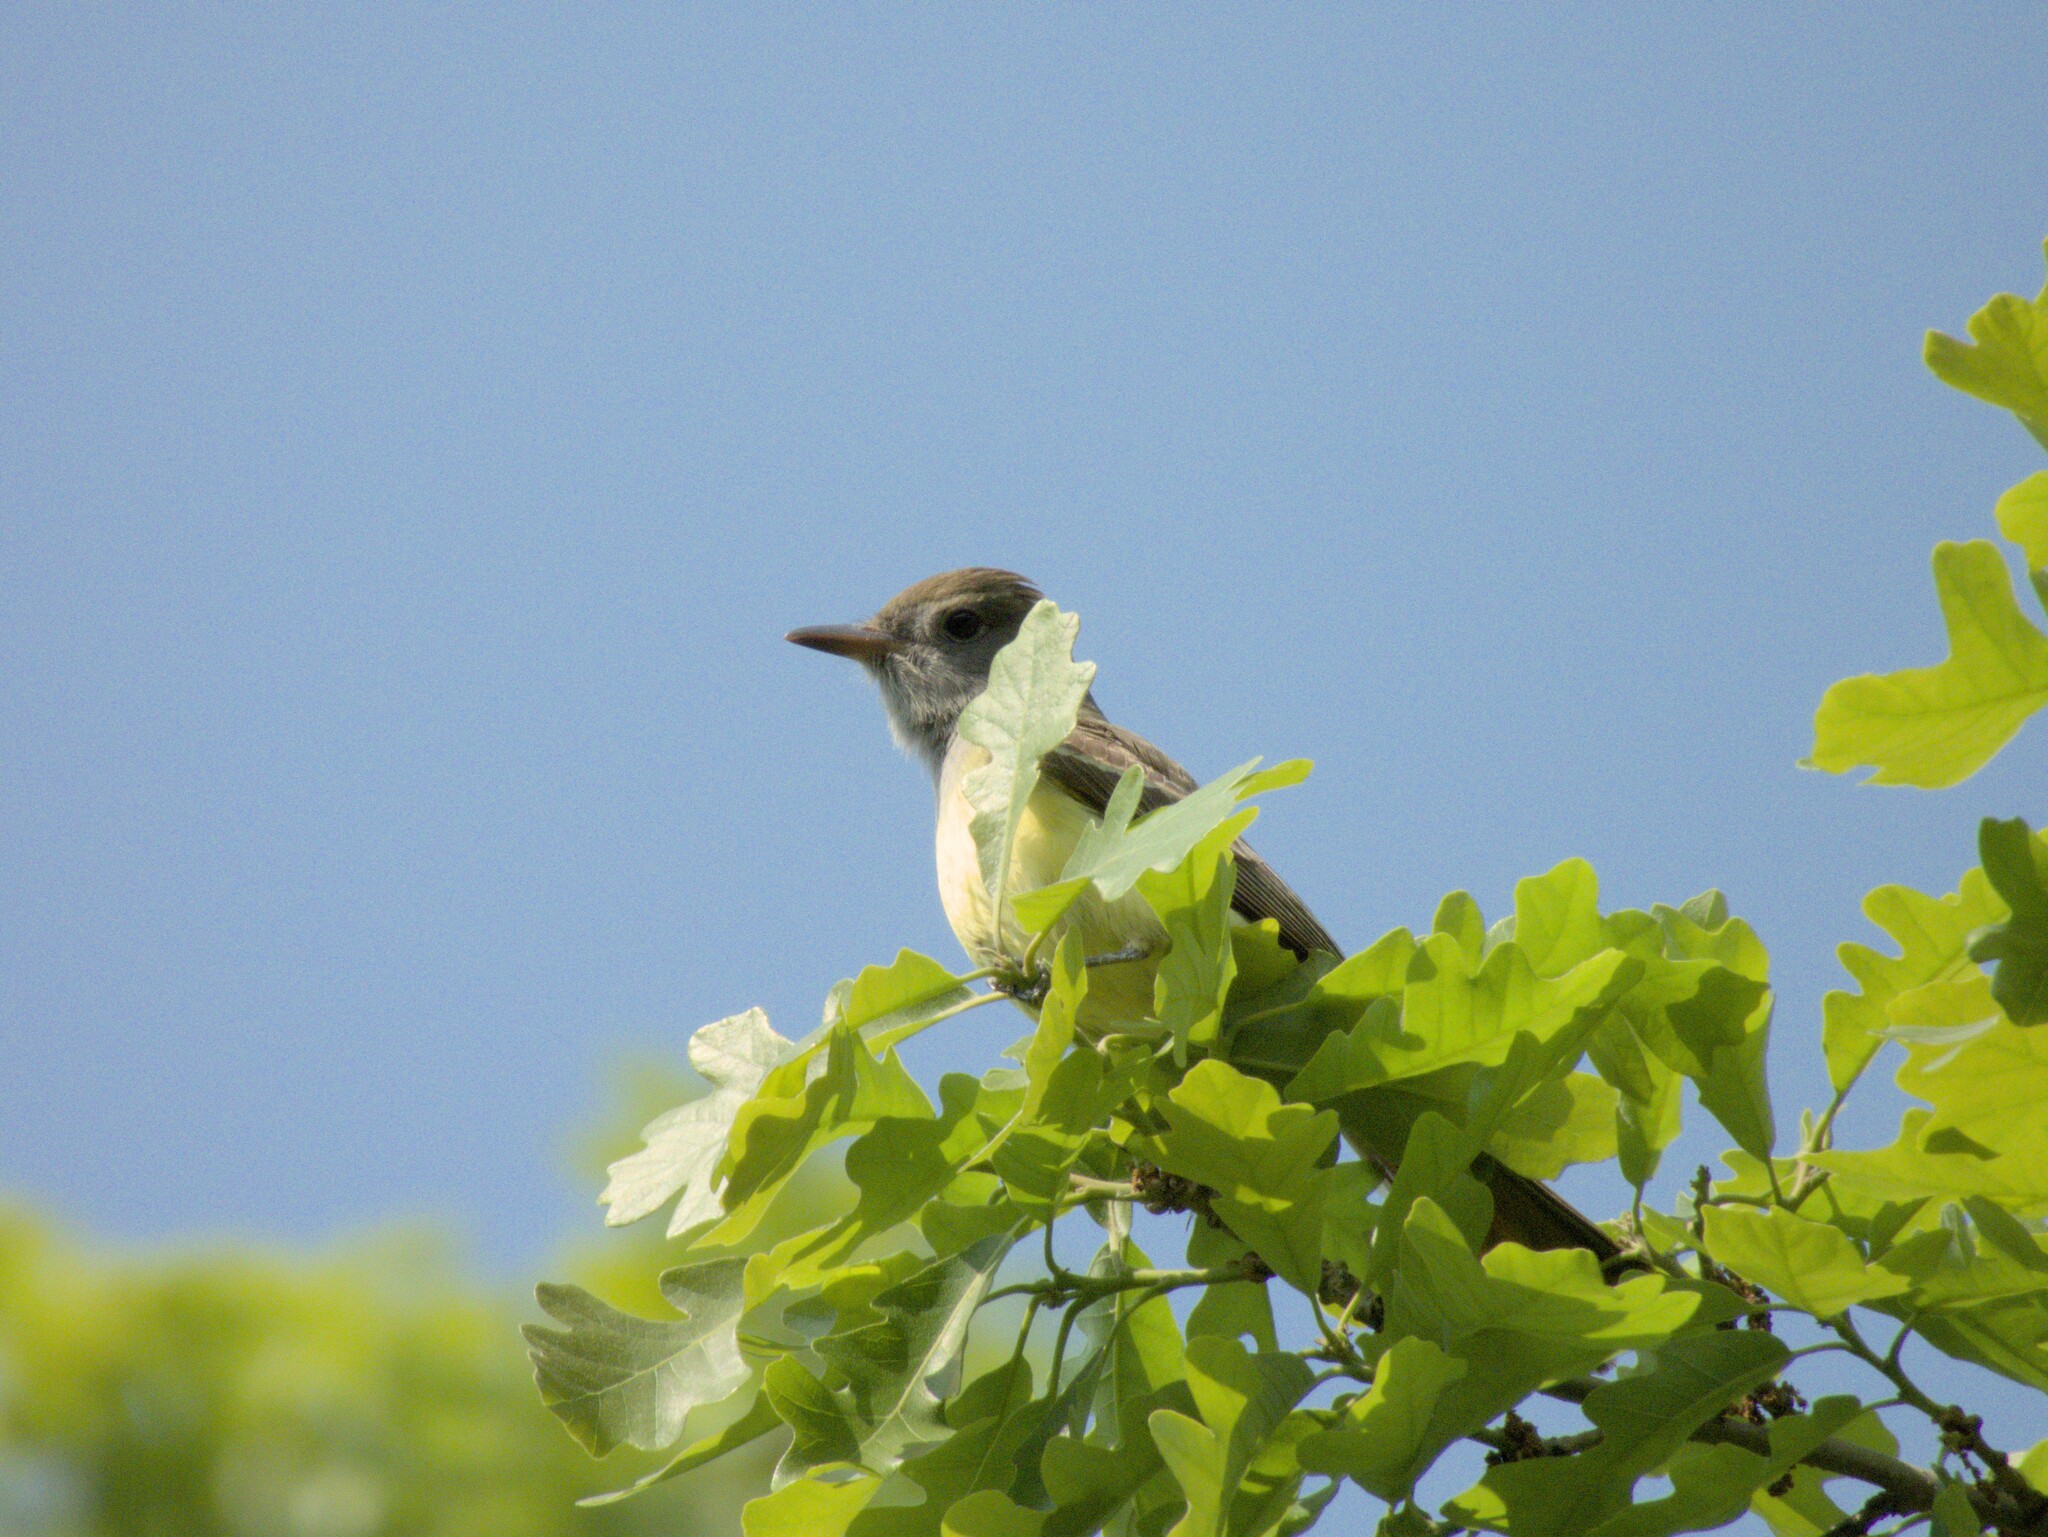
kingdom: Animalia
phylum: Chordata
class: Aves
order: Passeriformes
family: Tyrannidae
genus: Myiarchus
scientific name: Myiarchus crinitus
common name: Great crested flycatcher
